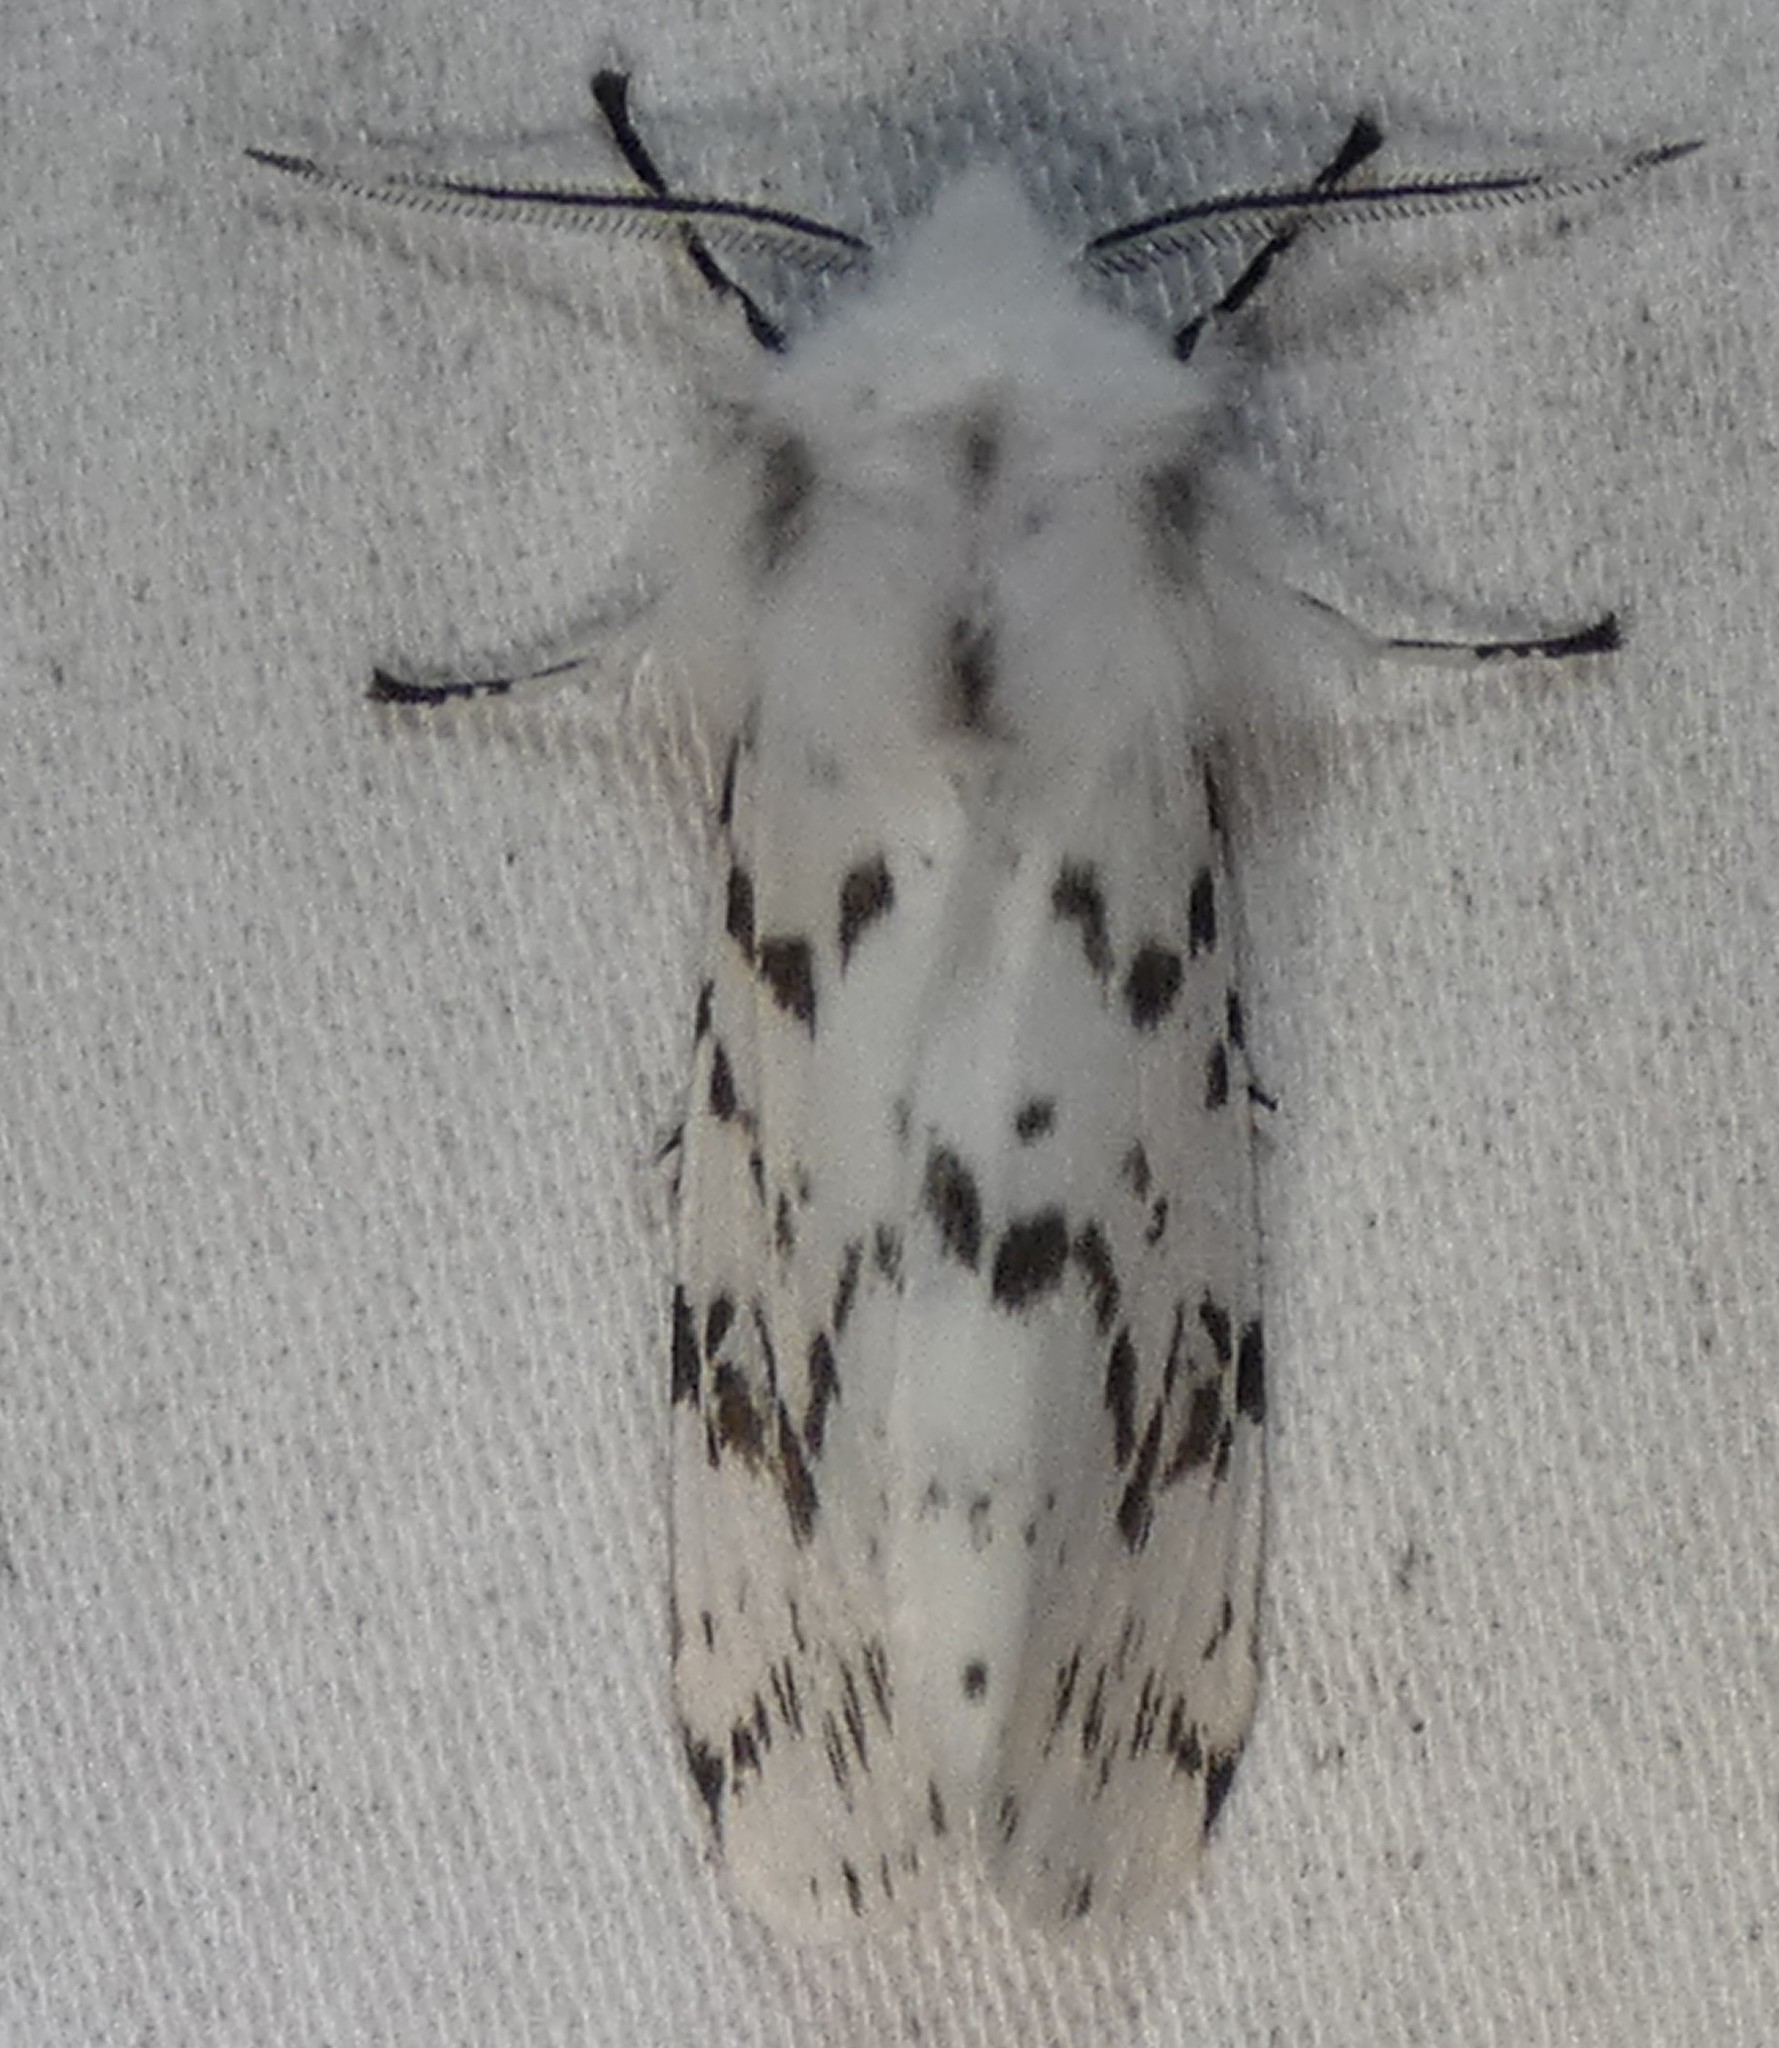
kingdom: Animalia
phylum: Arthropoda
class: Insecta
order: Lepidoptera
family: Erebidae
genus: Hyphantria
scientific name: Hyphantria cunea
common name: American white moth
